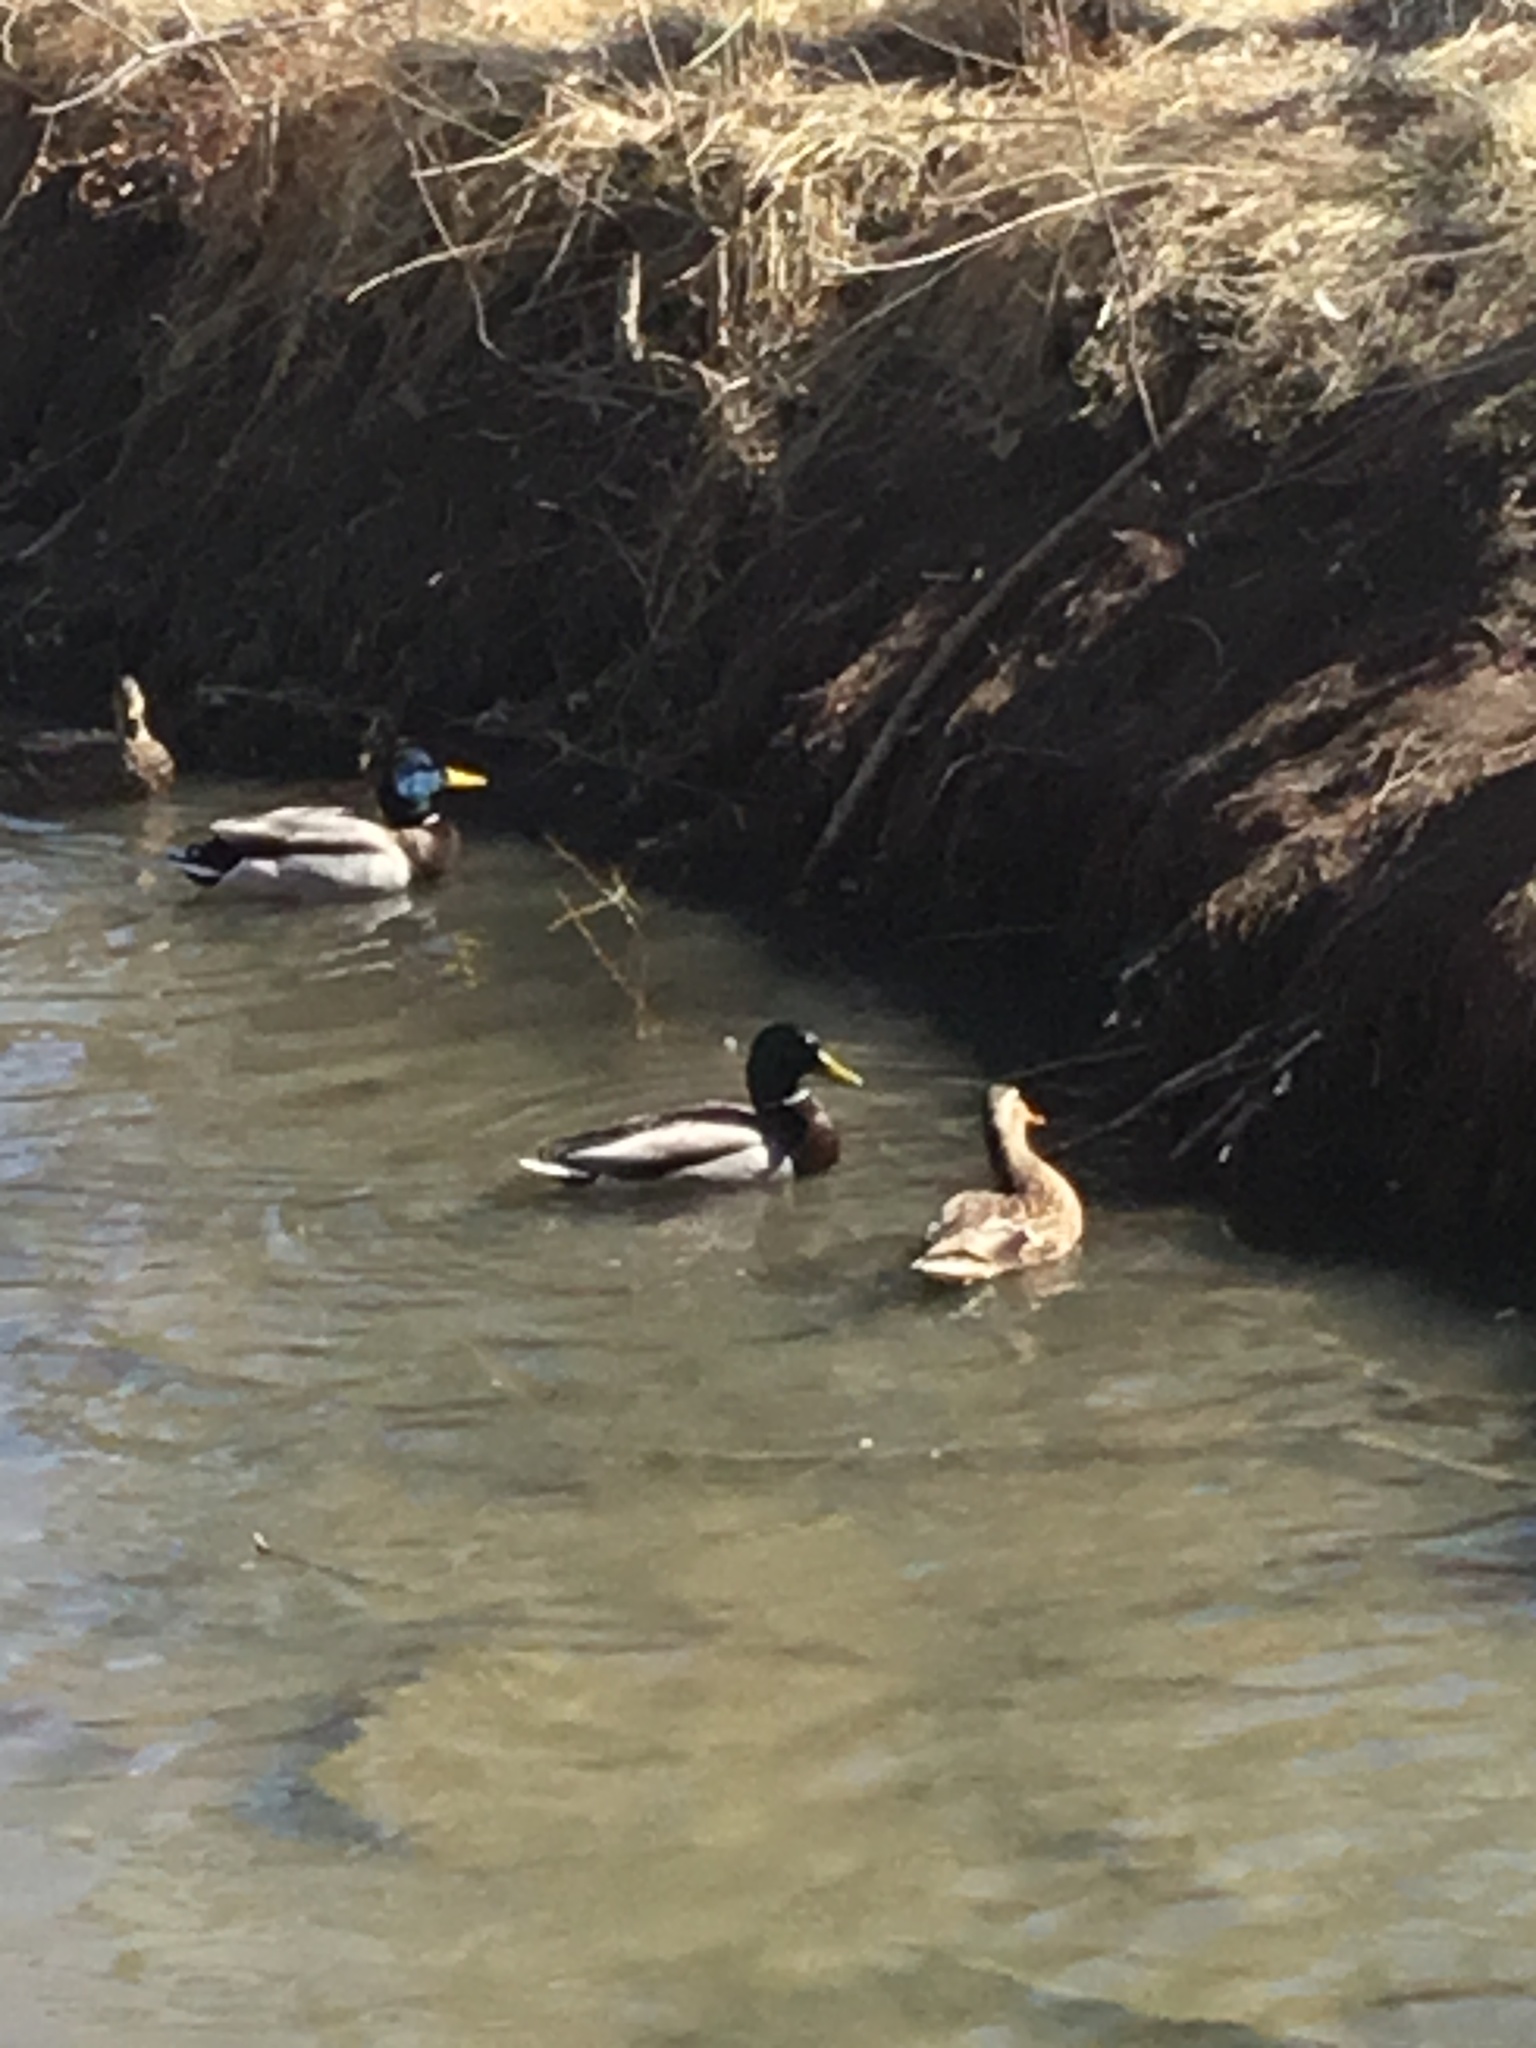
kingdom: Animalia
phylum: Chordata
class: Aves
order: Anseriformes
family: Anatidae
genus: Anas
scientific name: Anas platyrhynchos
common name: Mallard
